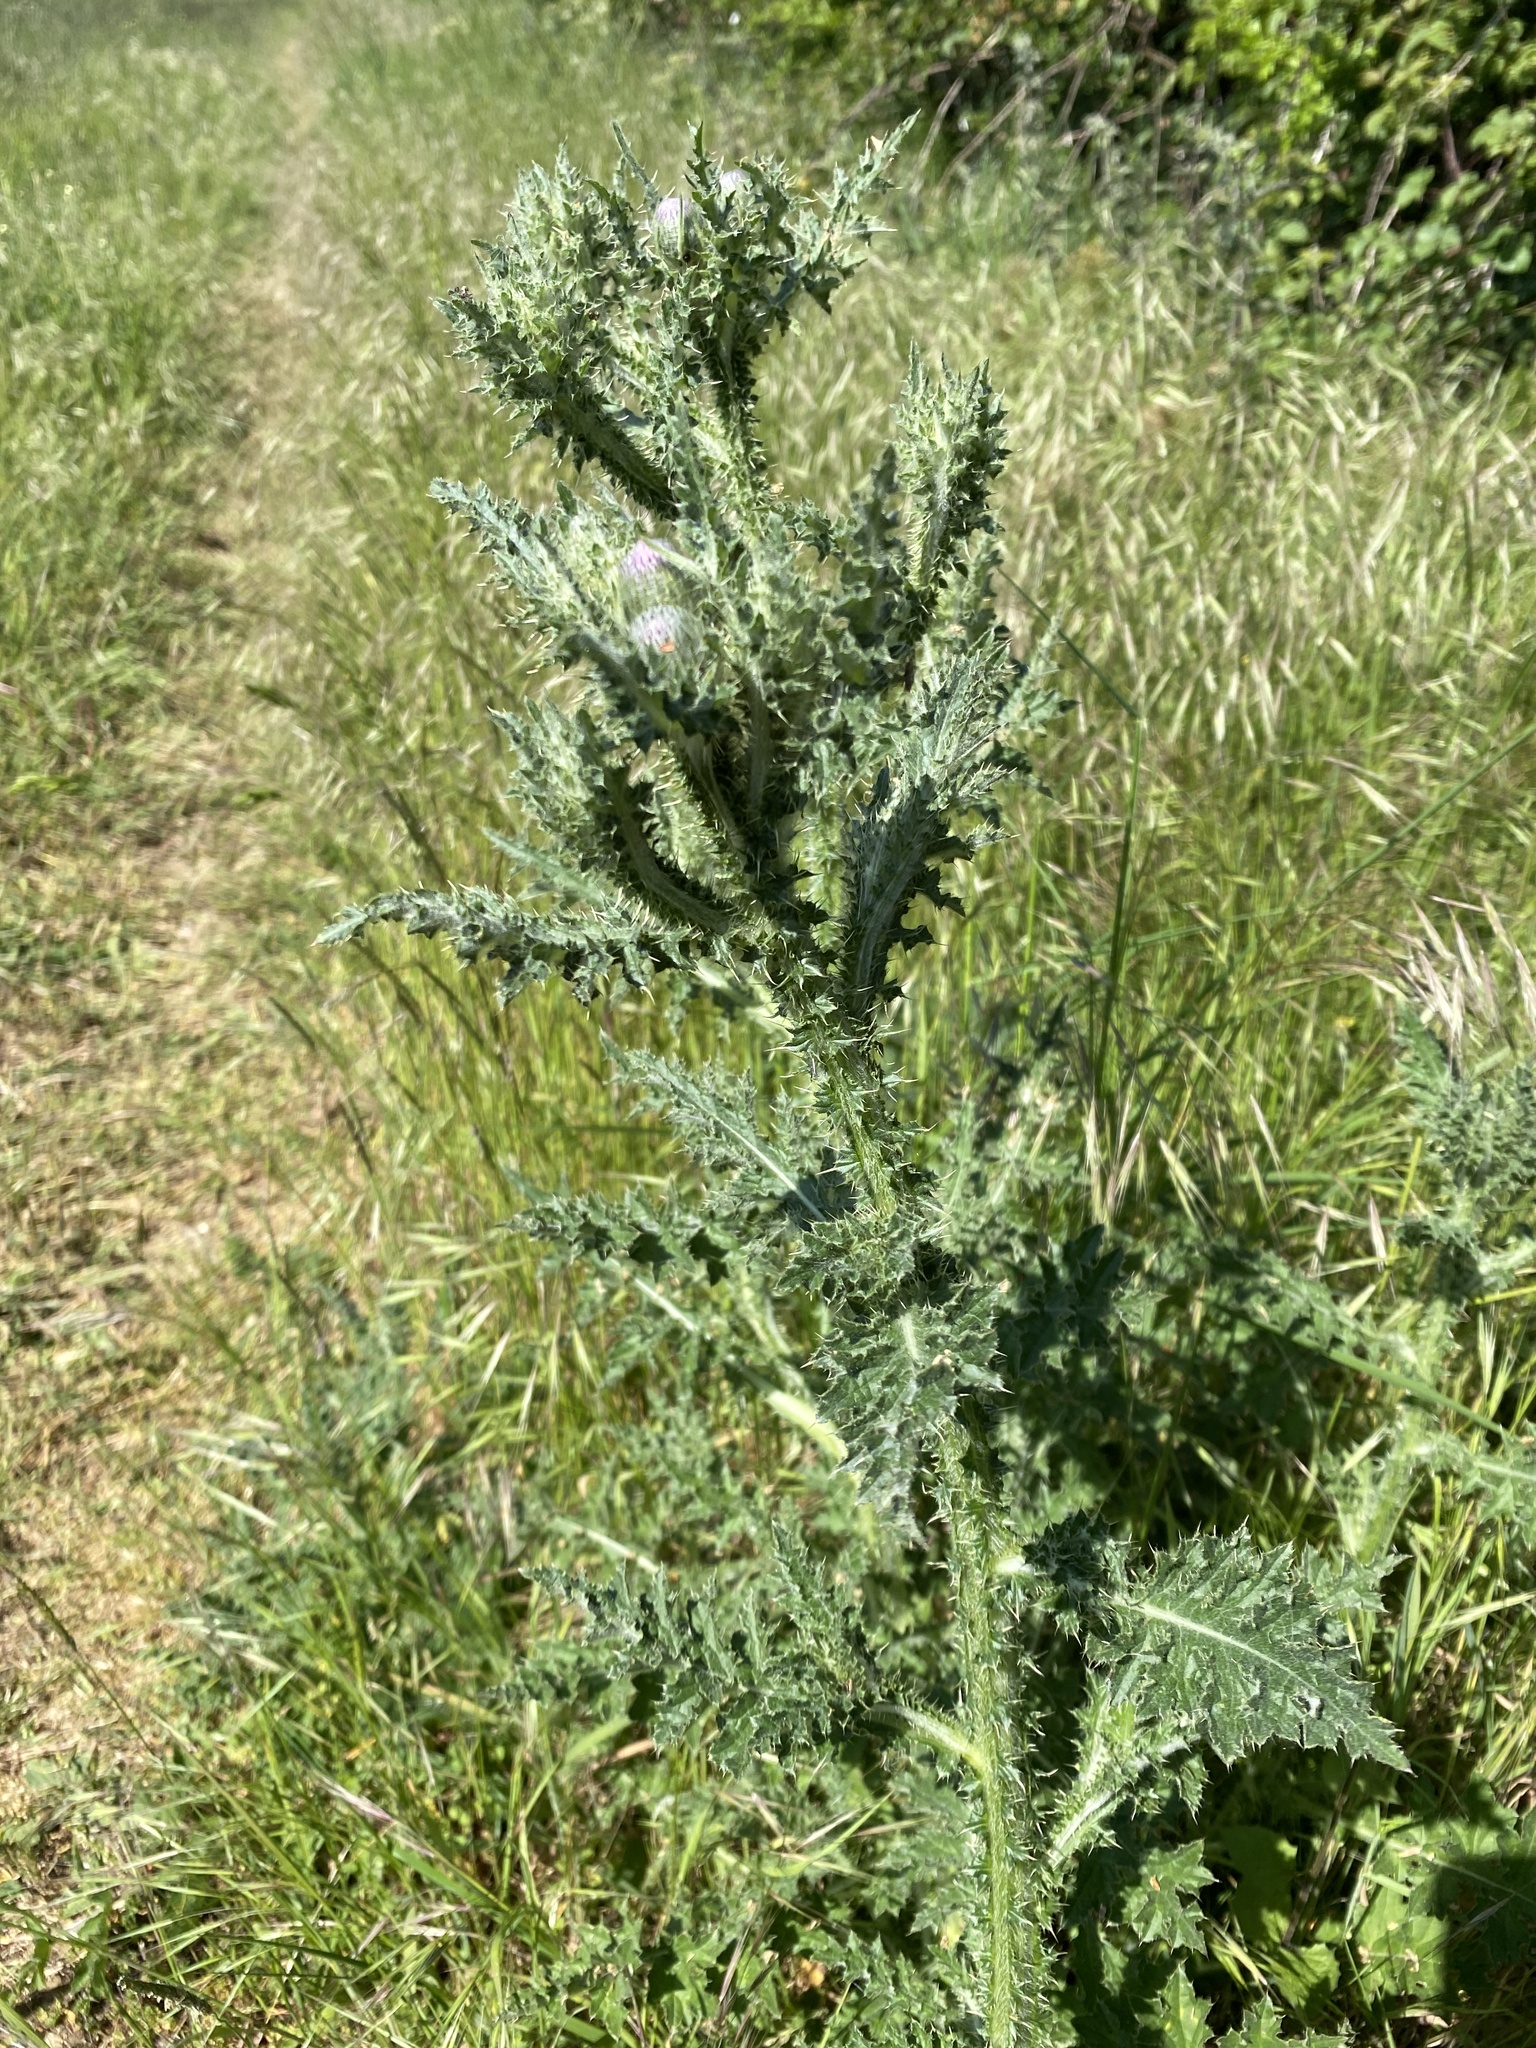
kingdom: Plantae
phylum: Tracheophyta
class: Magnoliopsida
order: Asterales
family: Asteraceae
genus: Carduus
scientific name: Carduus crispus
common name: Welted thistle
